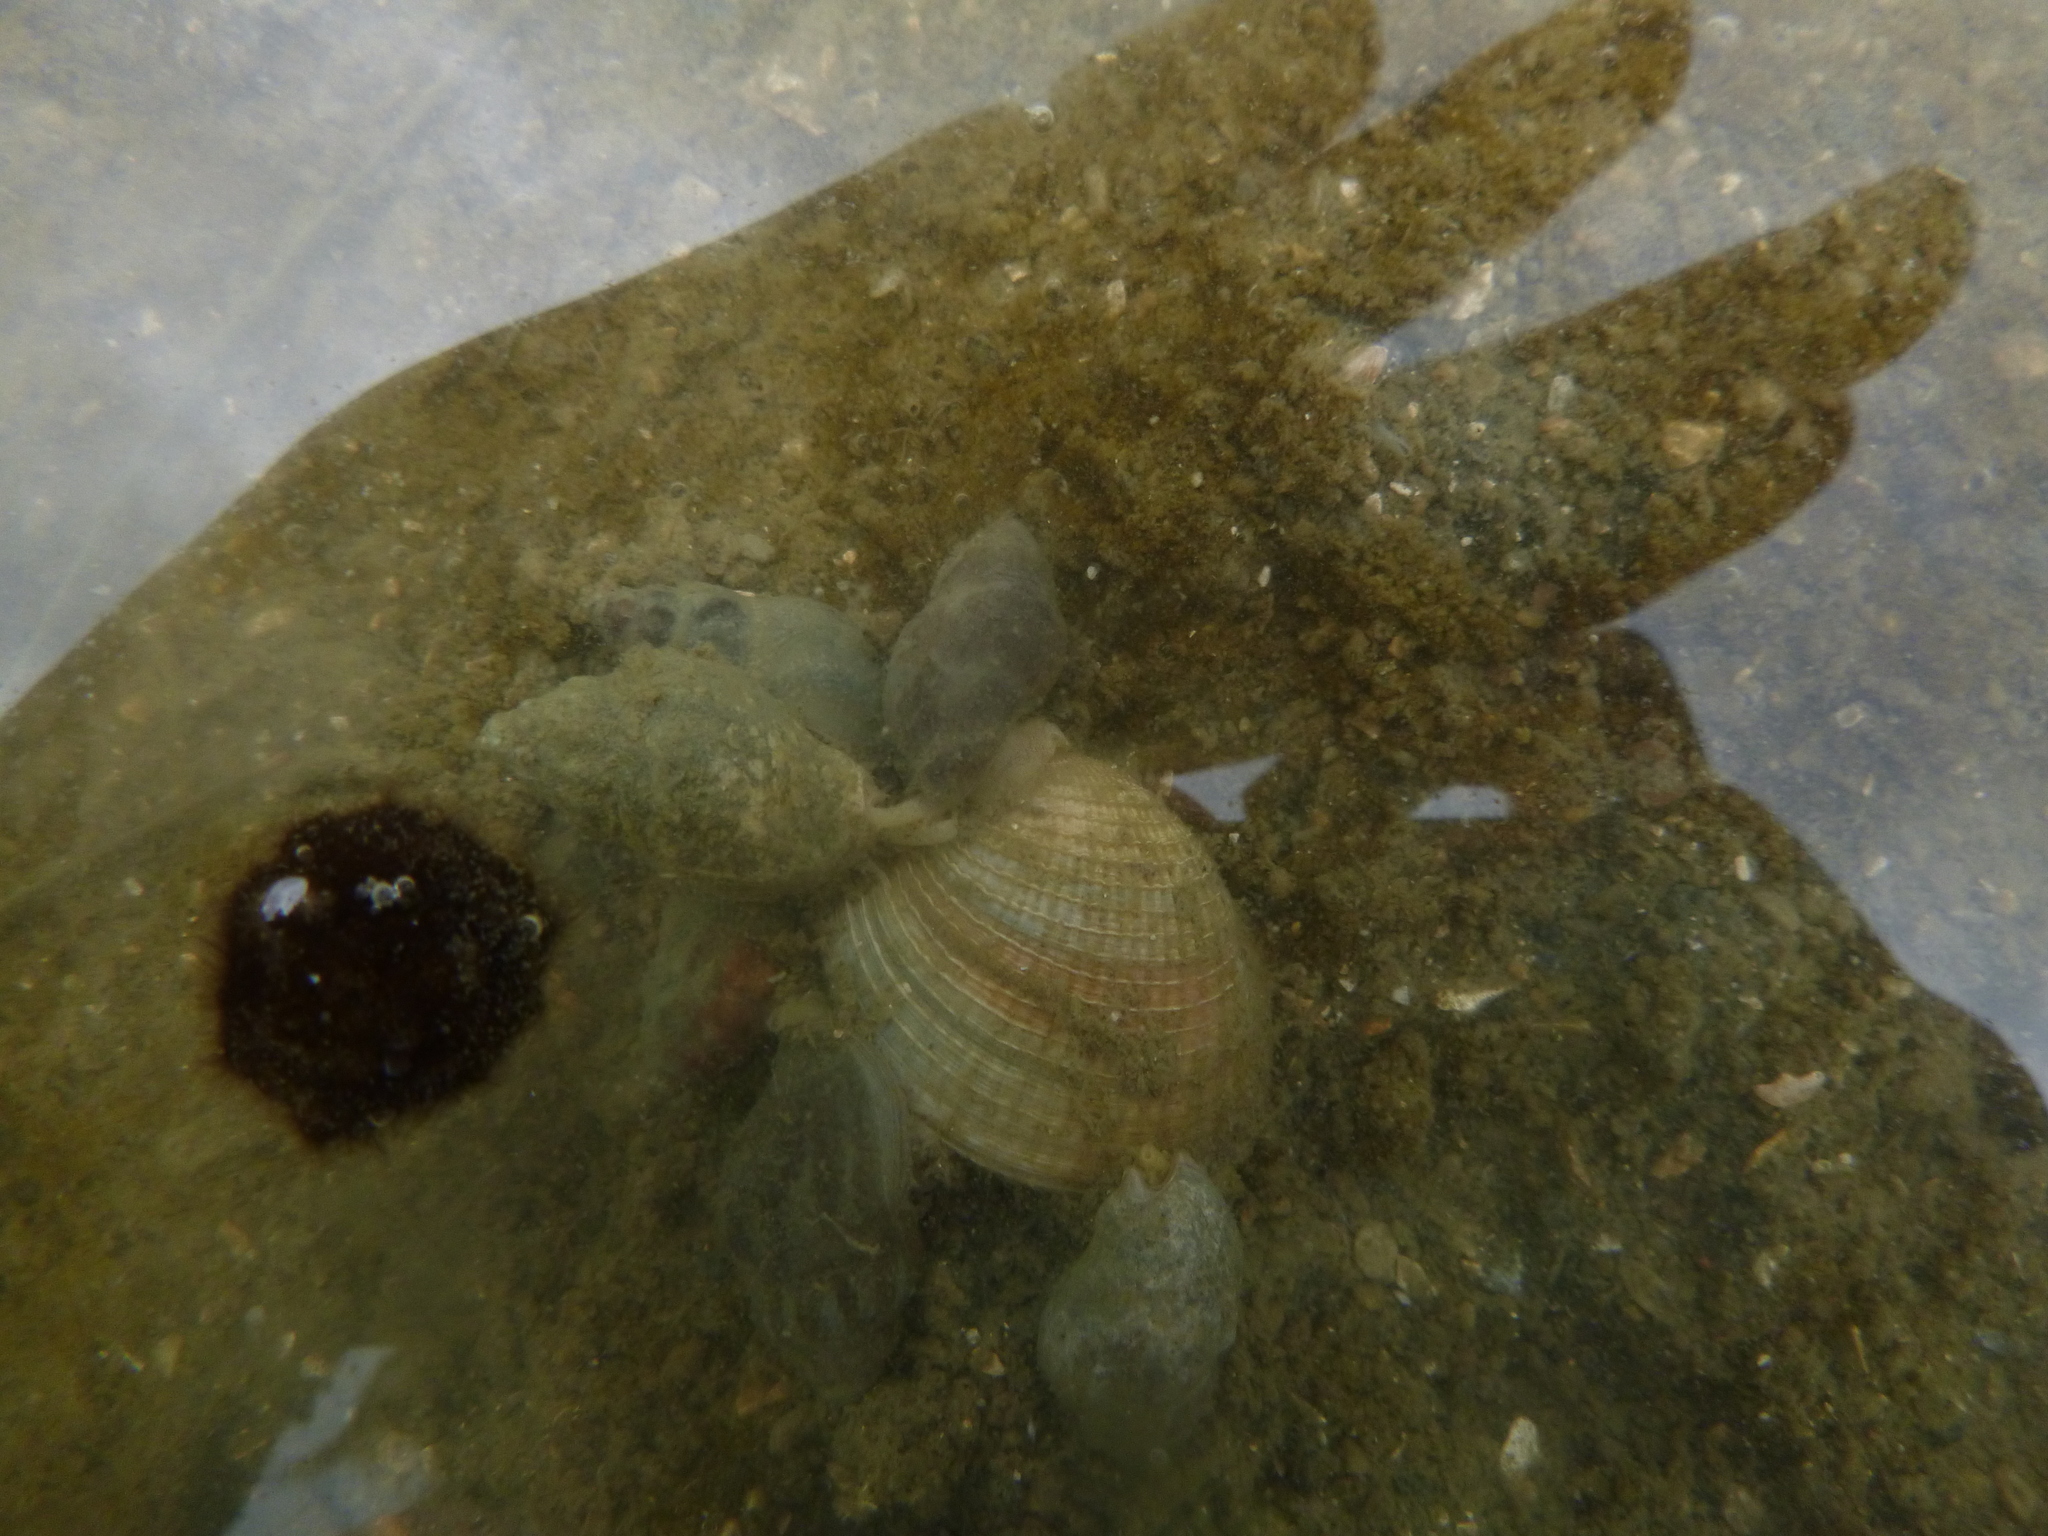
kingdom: Animalia
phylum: Mollusca
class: Bivalvia
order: Venerida
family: Veneridae
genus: Austrovenus
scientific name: Austrovenus stutchburyi
